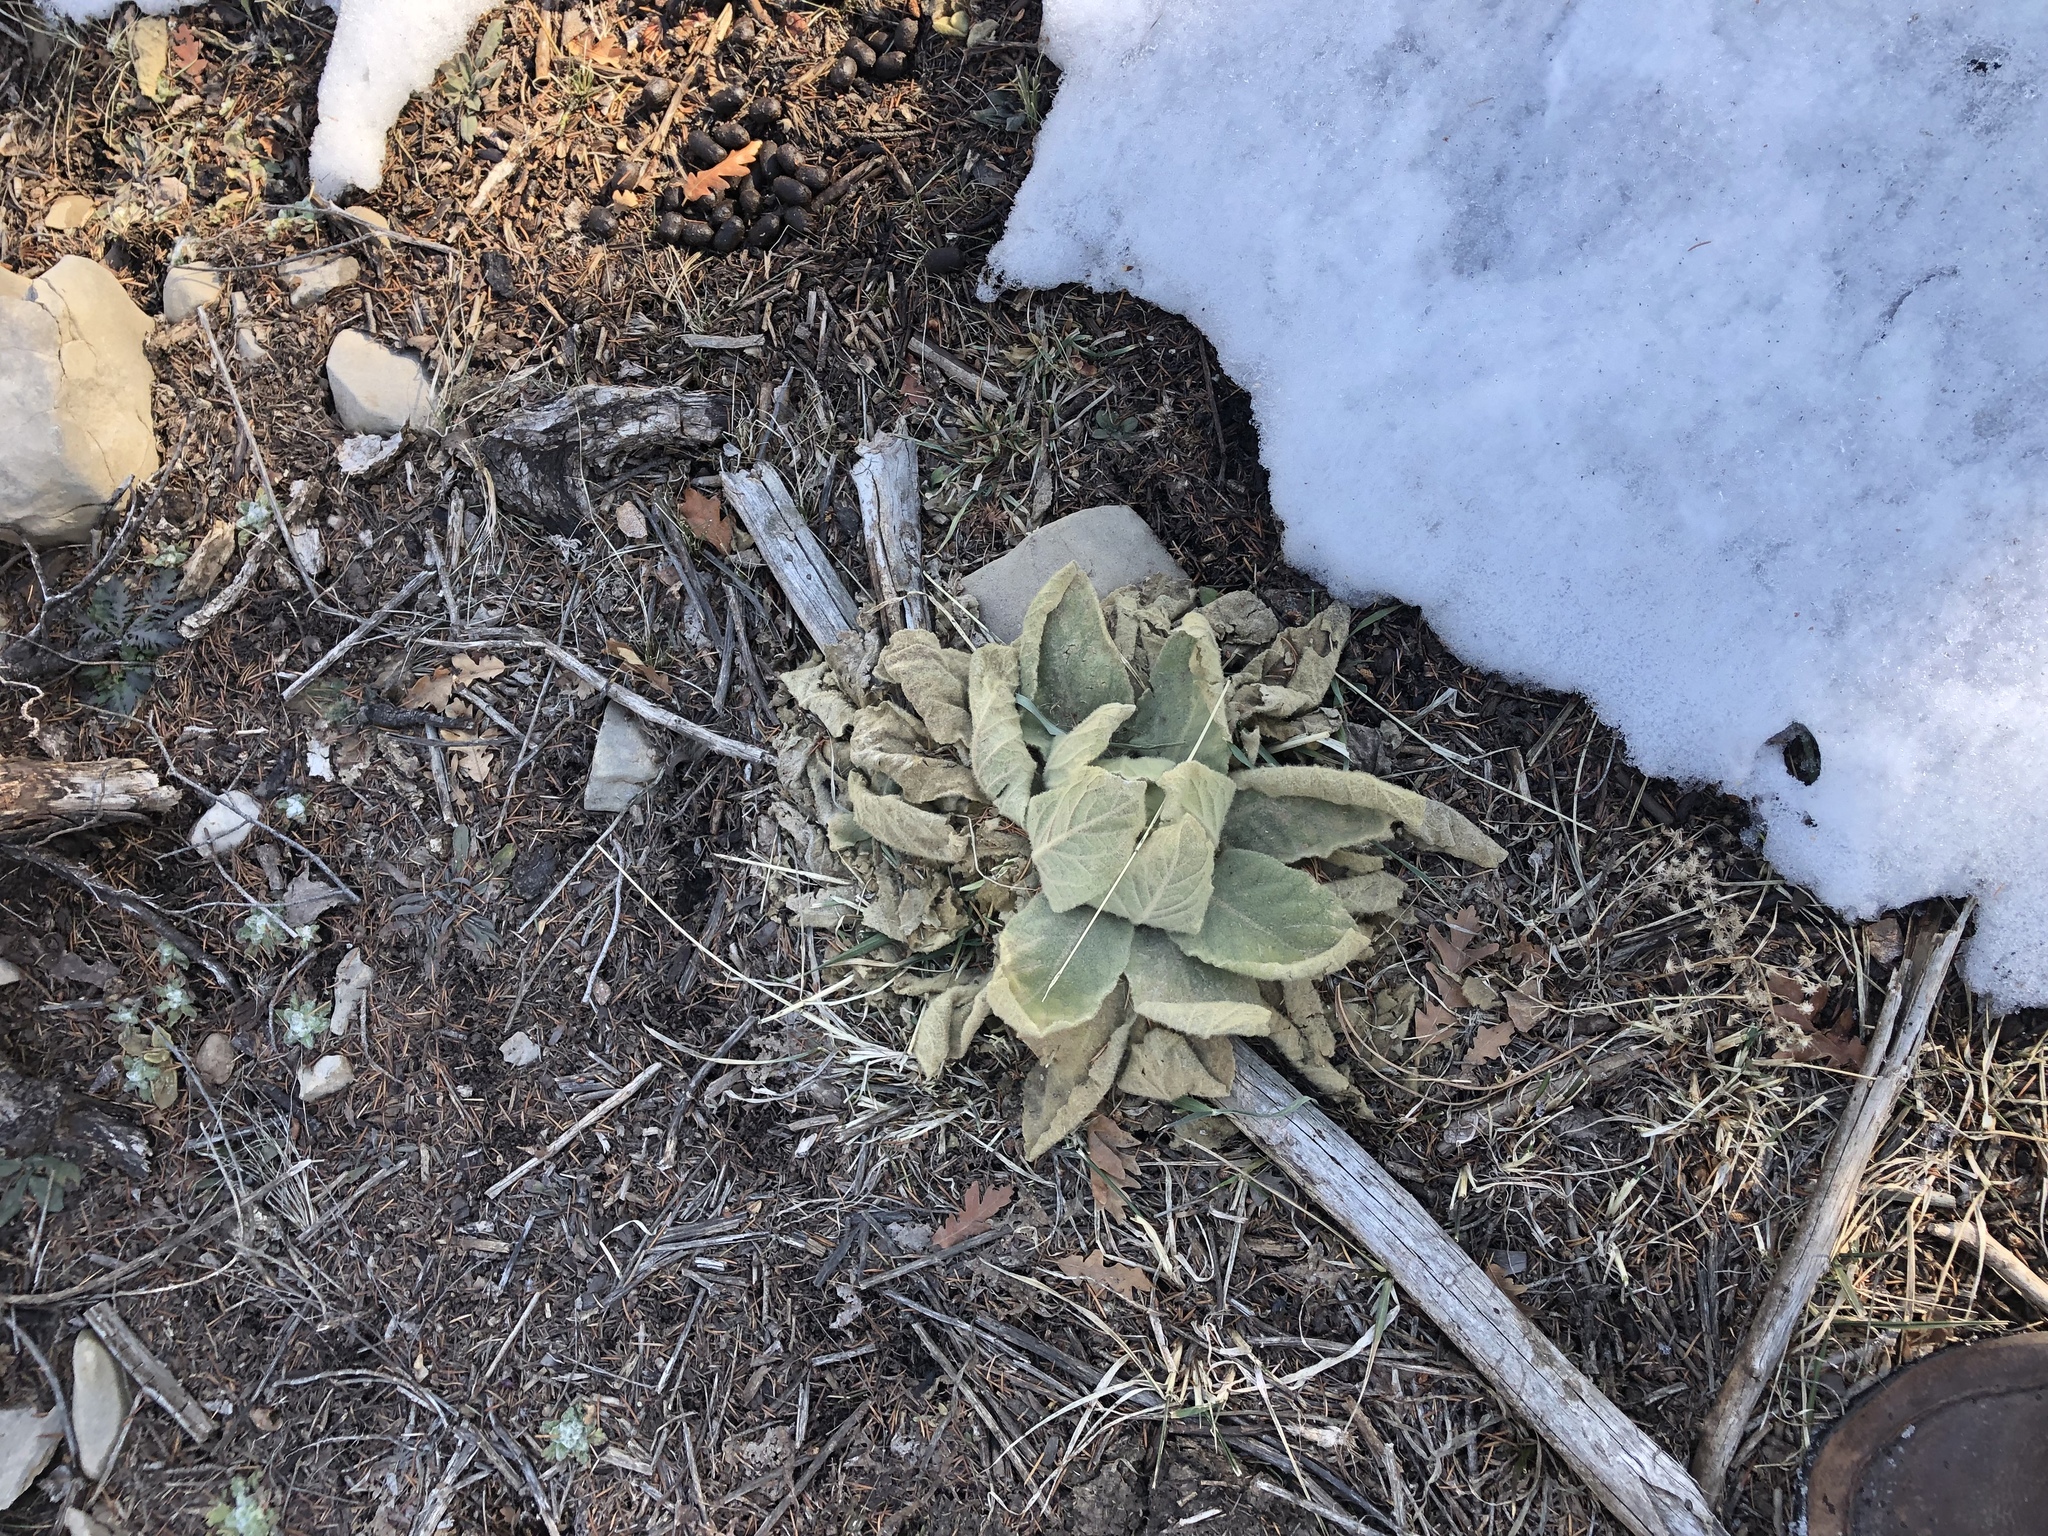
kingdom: Plantae
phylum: Tracheophyta
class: Magnoliopsida
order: Lamiales
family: Scrophulariaceae
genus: Verbascum
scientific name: Verbascum thapsus
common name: Common mullein
